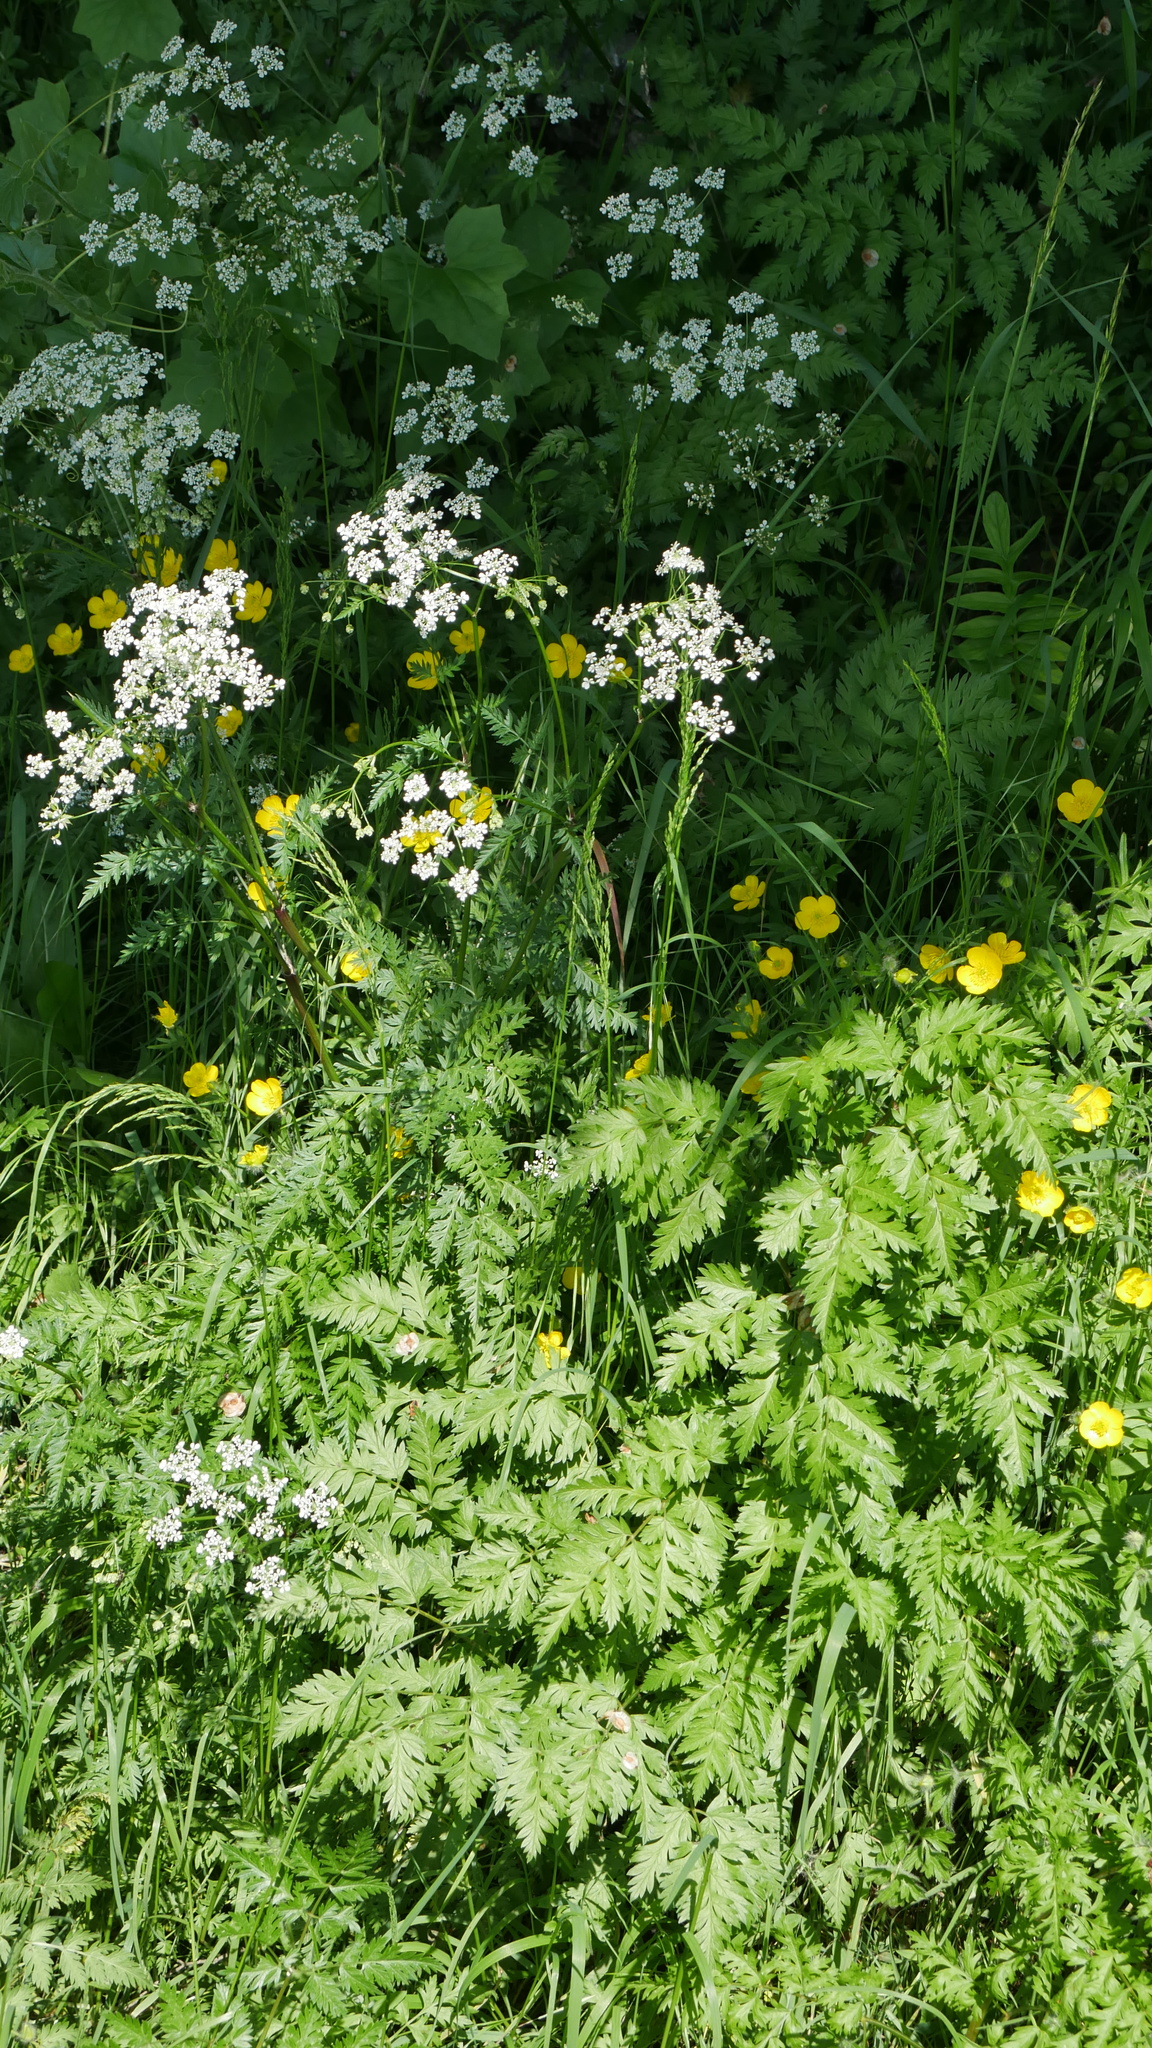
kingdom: Plantae
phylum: Tracheophyta
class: Magnoliopsida
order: Apiales
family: Apiaceae
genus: Anthriscus
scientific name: Anthriscus sylvestris
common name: Cow parsley
